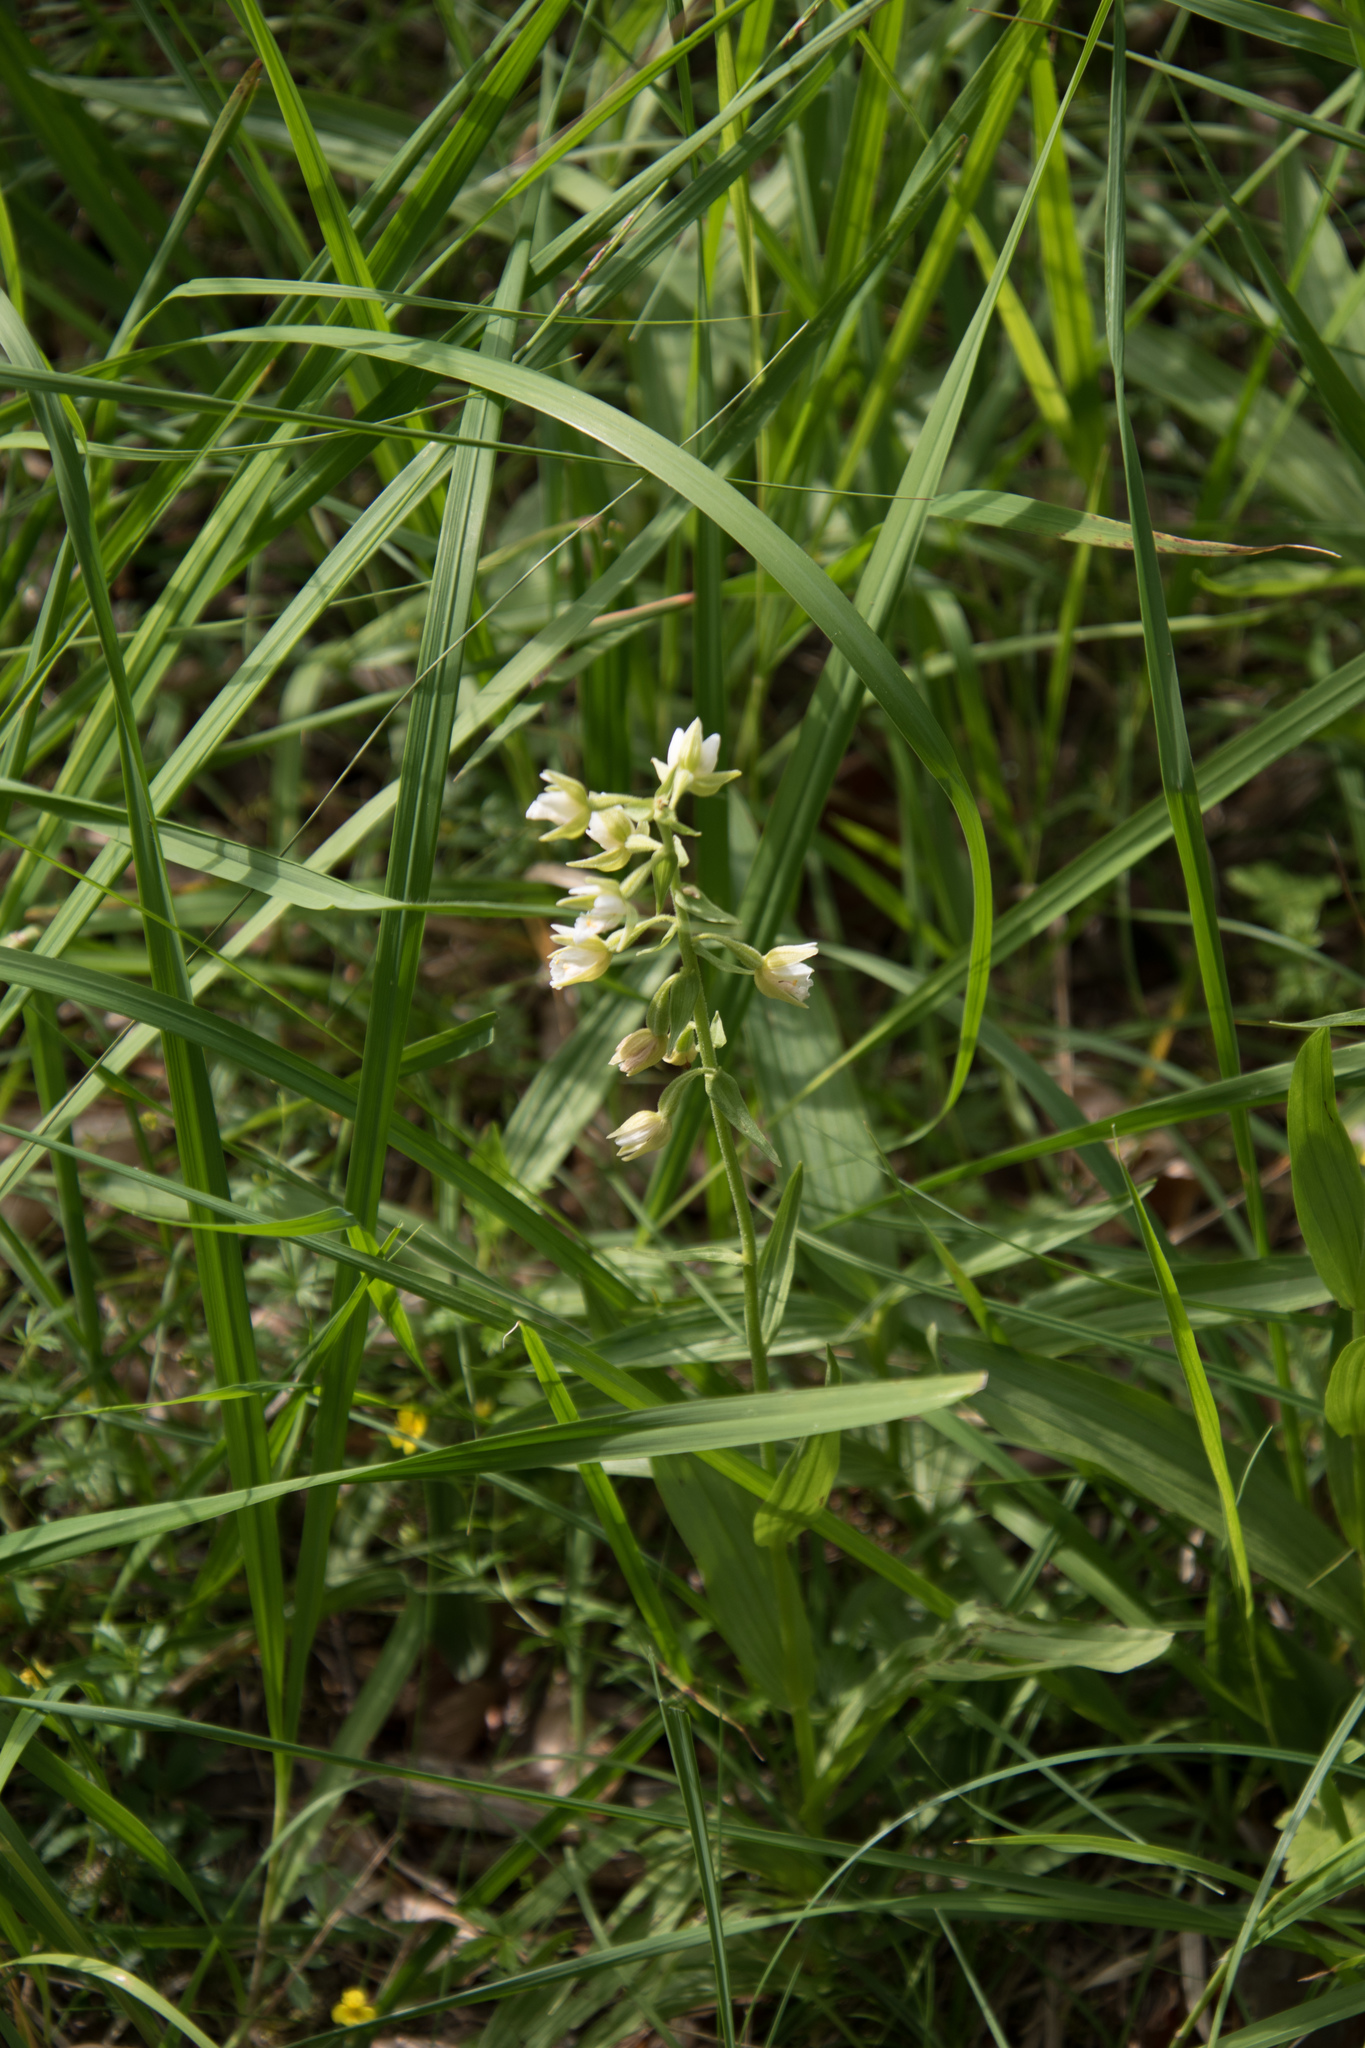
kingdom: Plantae
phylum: Tracheophyta
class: Liliopsida
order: Asparagales
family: Orchidaceae
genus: Epipactis
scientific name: Epipactis palustris
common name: Marsh helleborine
